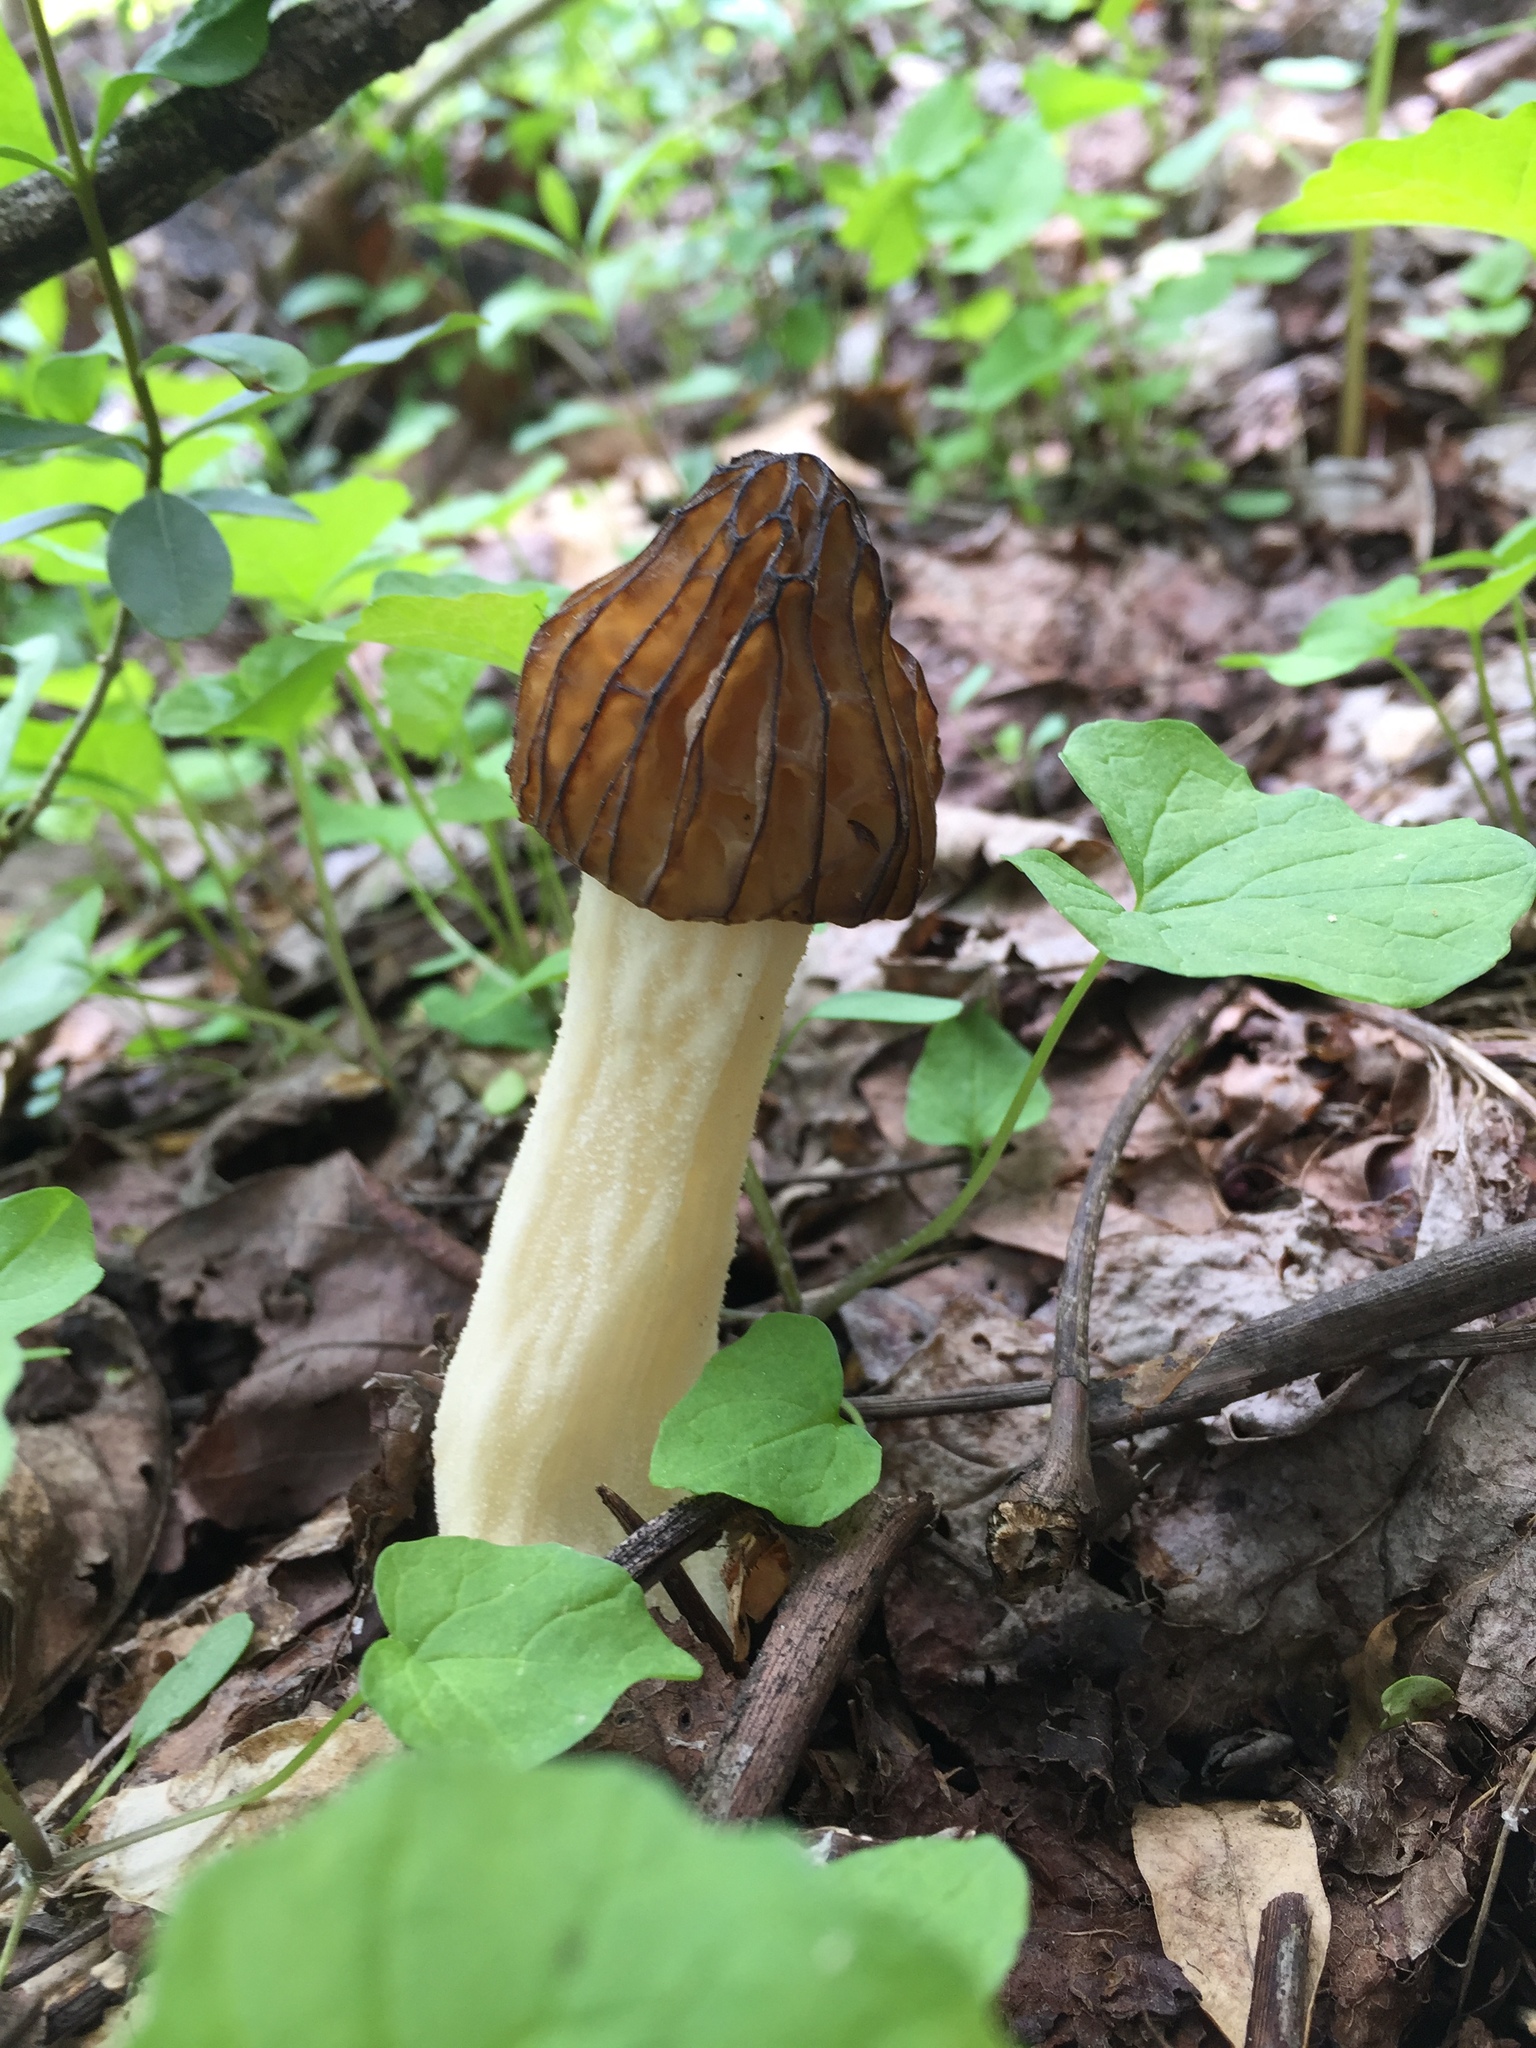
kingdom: Fungi
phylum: Ascomycota
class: Pezizomycetes
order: Pezizales
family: Morchellaceae
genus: Morchella
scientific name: Morchella punctipes
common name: Half-free morel
